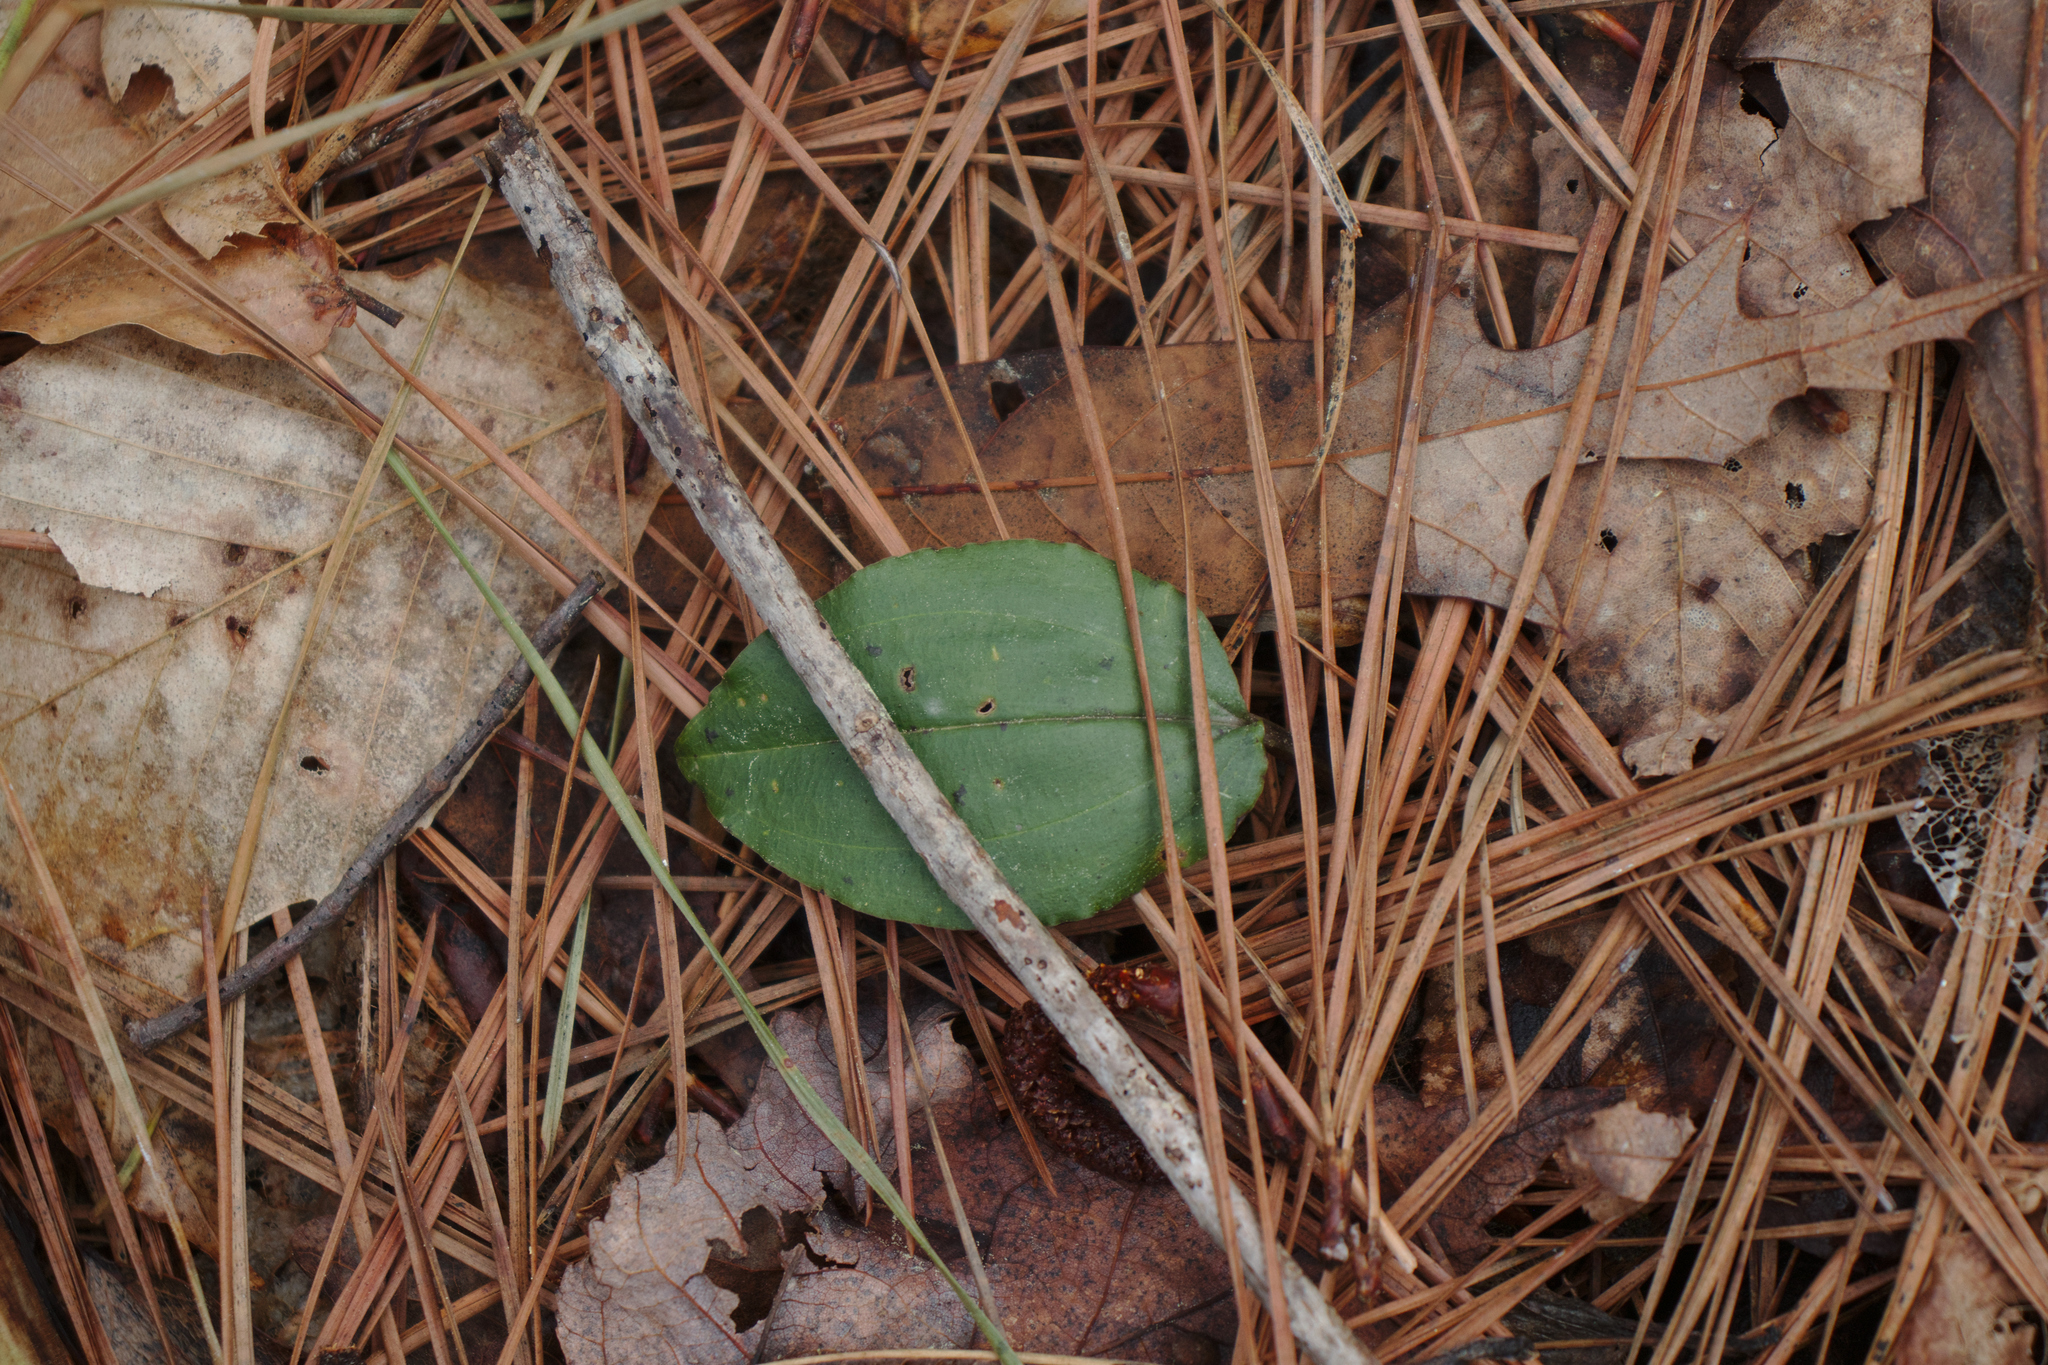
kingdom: Plantae
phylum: Tracheophyta
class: Liliopsida
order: Asparagales
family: Orchidaceae
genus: Tipularia
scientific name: Tipularia discolor
